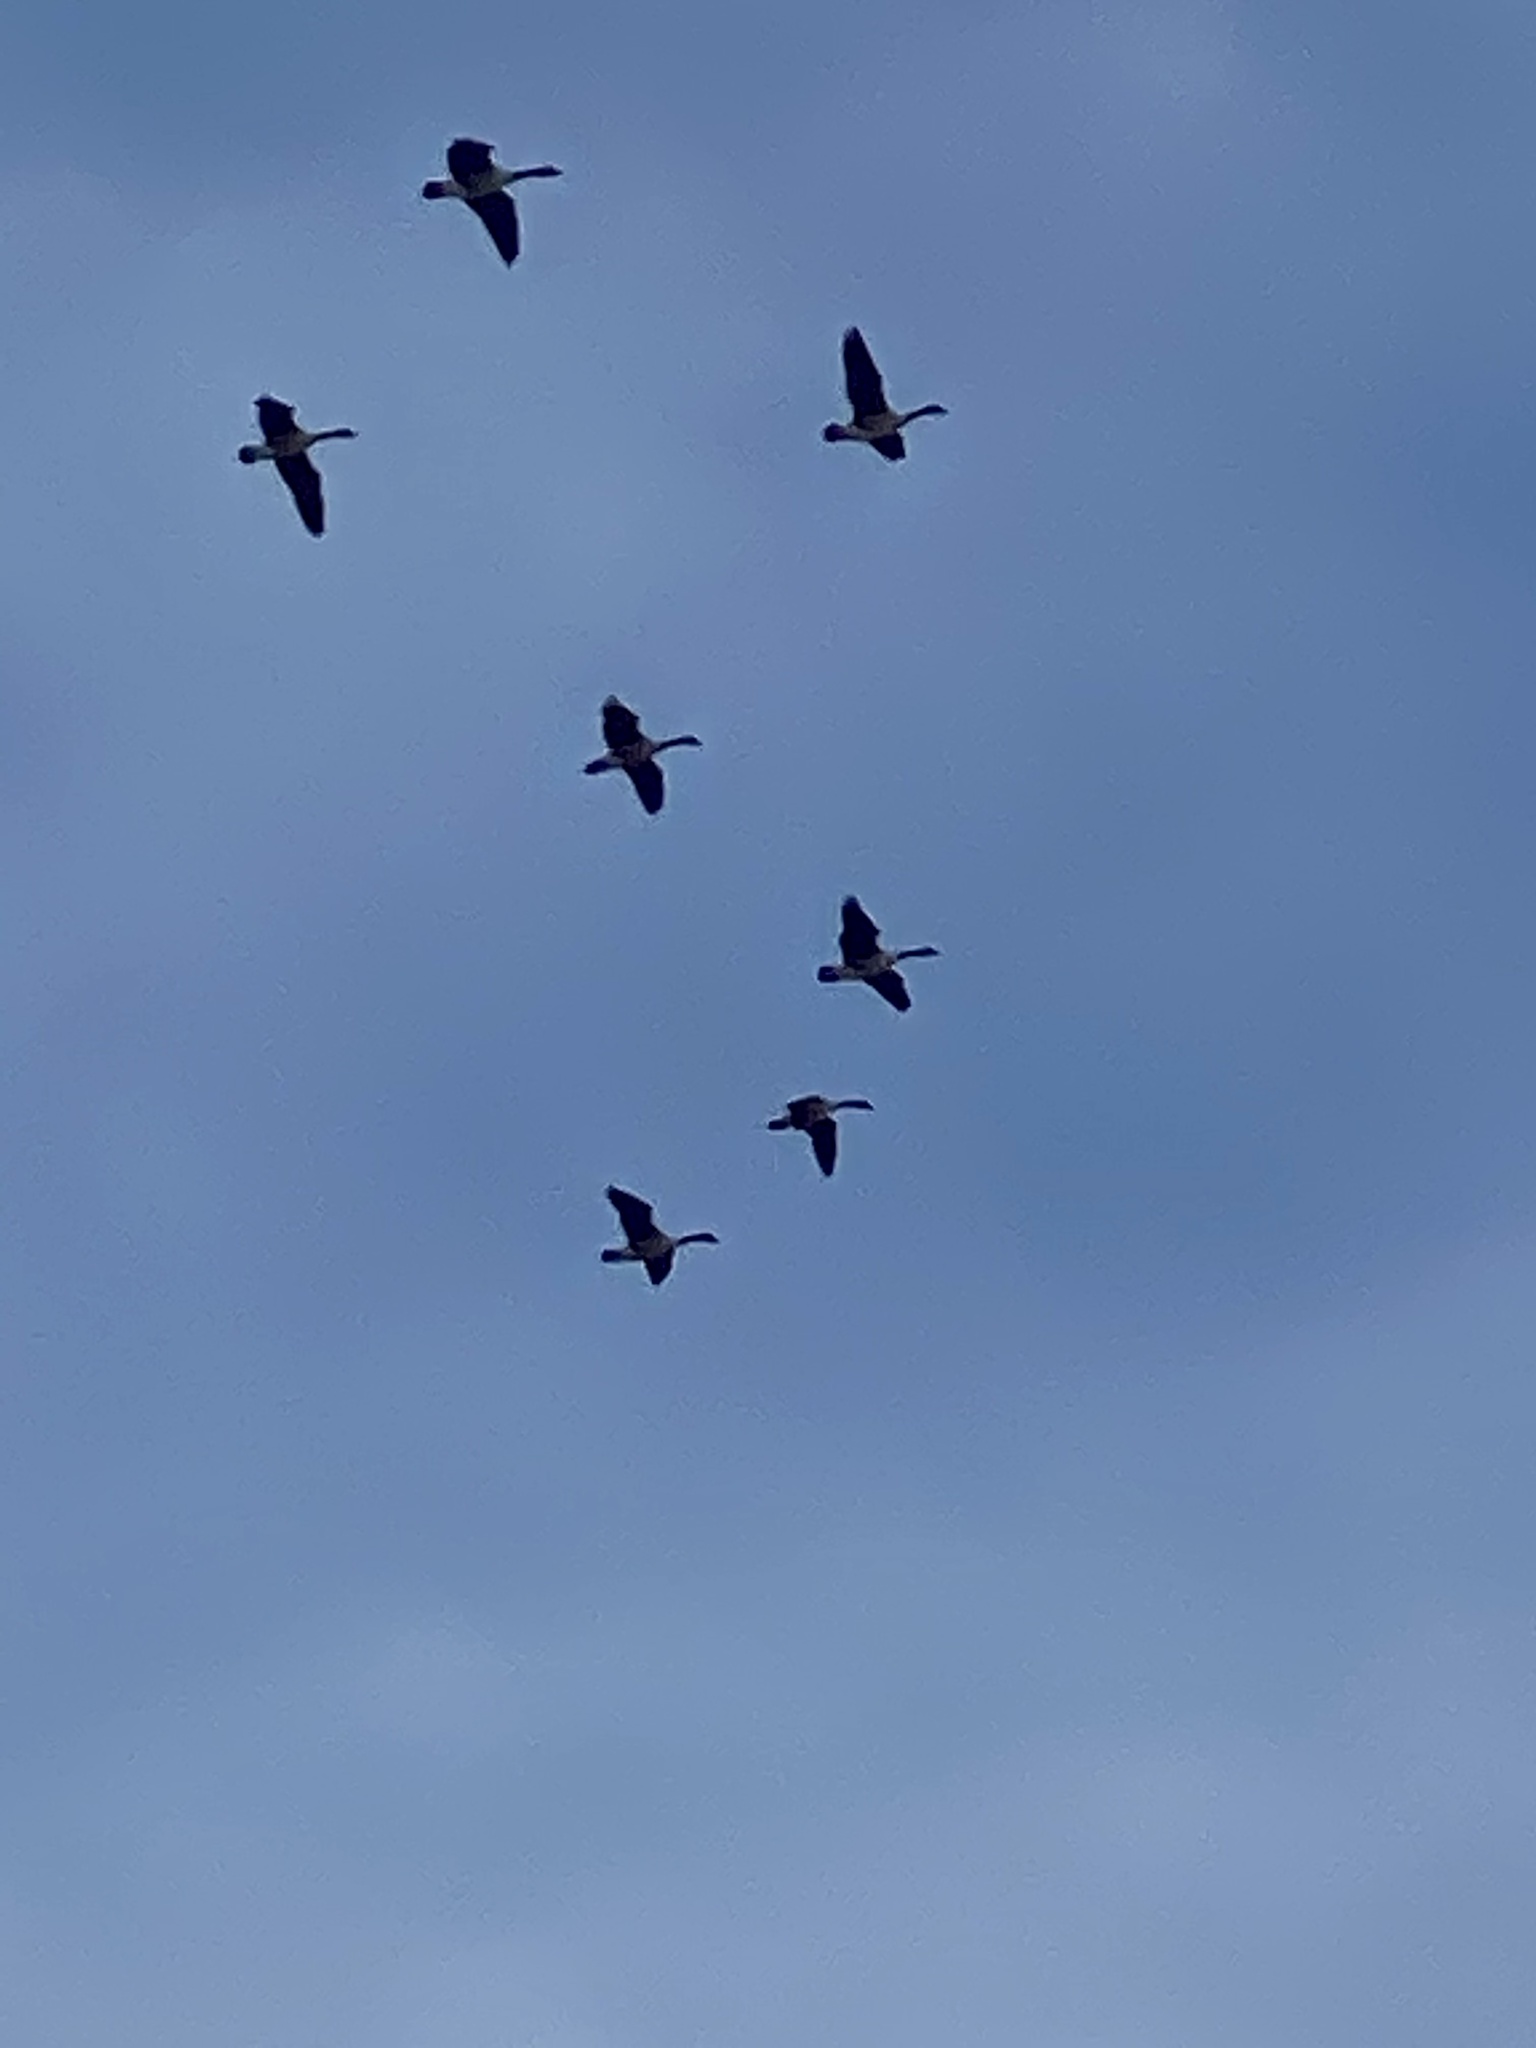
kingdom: Animalia
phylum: Chordata
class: Aves
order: Anseriformes
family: Anatidae
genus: Branta
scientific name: Branta canadensis
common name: Canada goose
